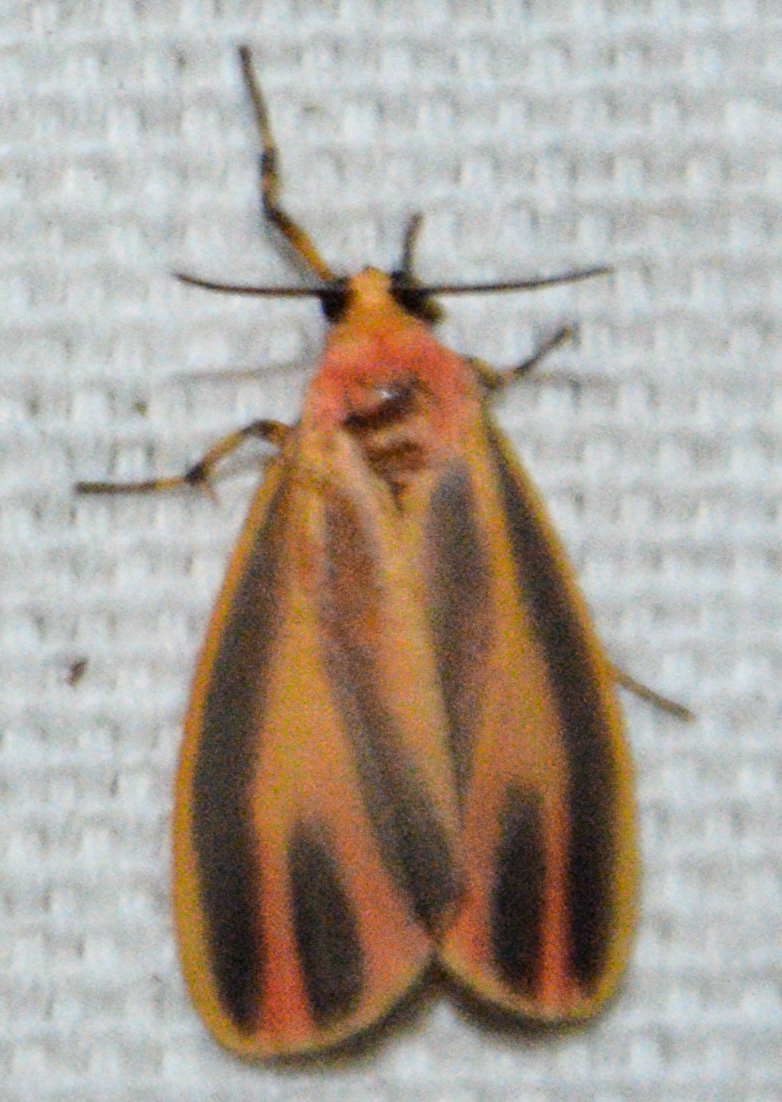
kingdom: Animalia
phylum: Arthropoda
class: Insecta
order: Lepidoptera
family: Erebidae
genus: Hypoprepia
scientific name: Hypoprepia fucosa
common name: Painted lichen moth
